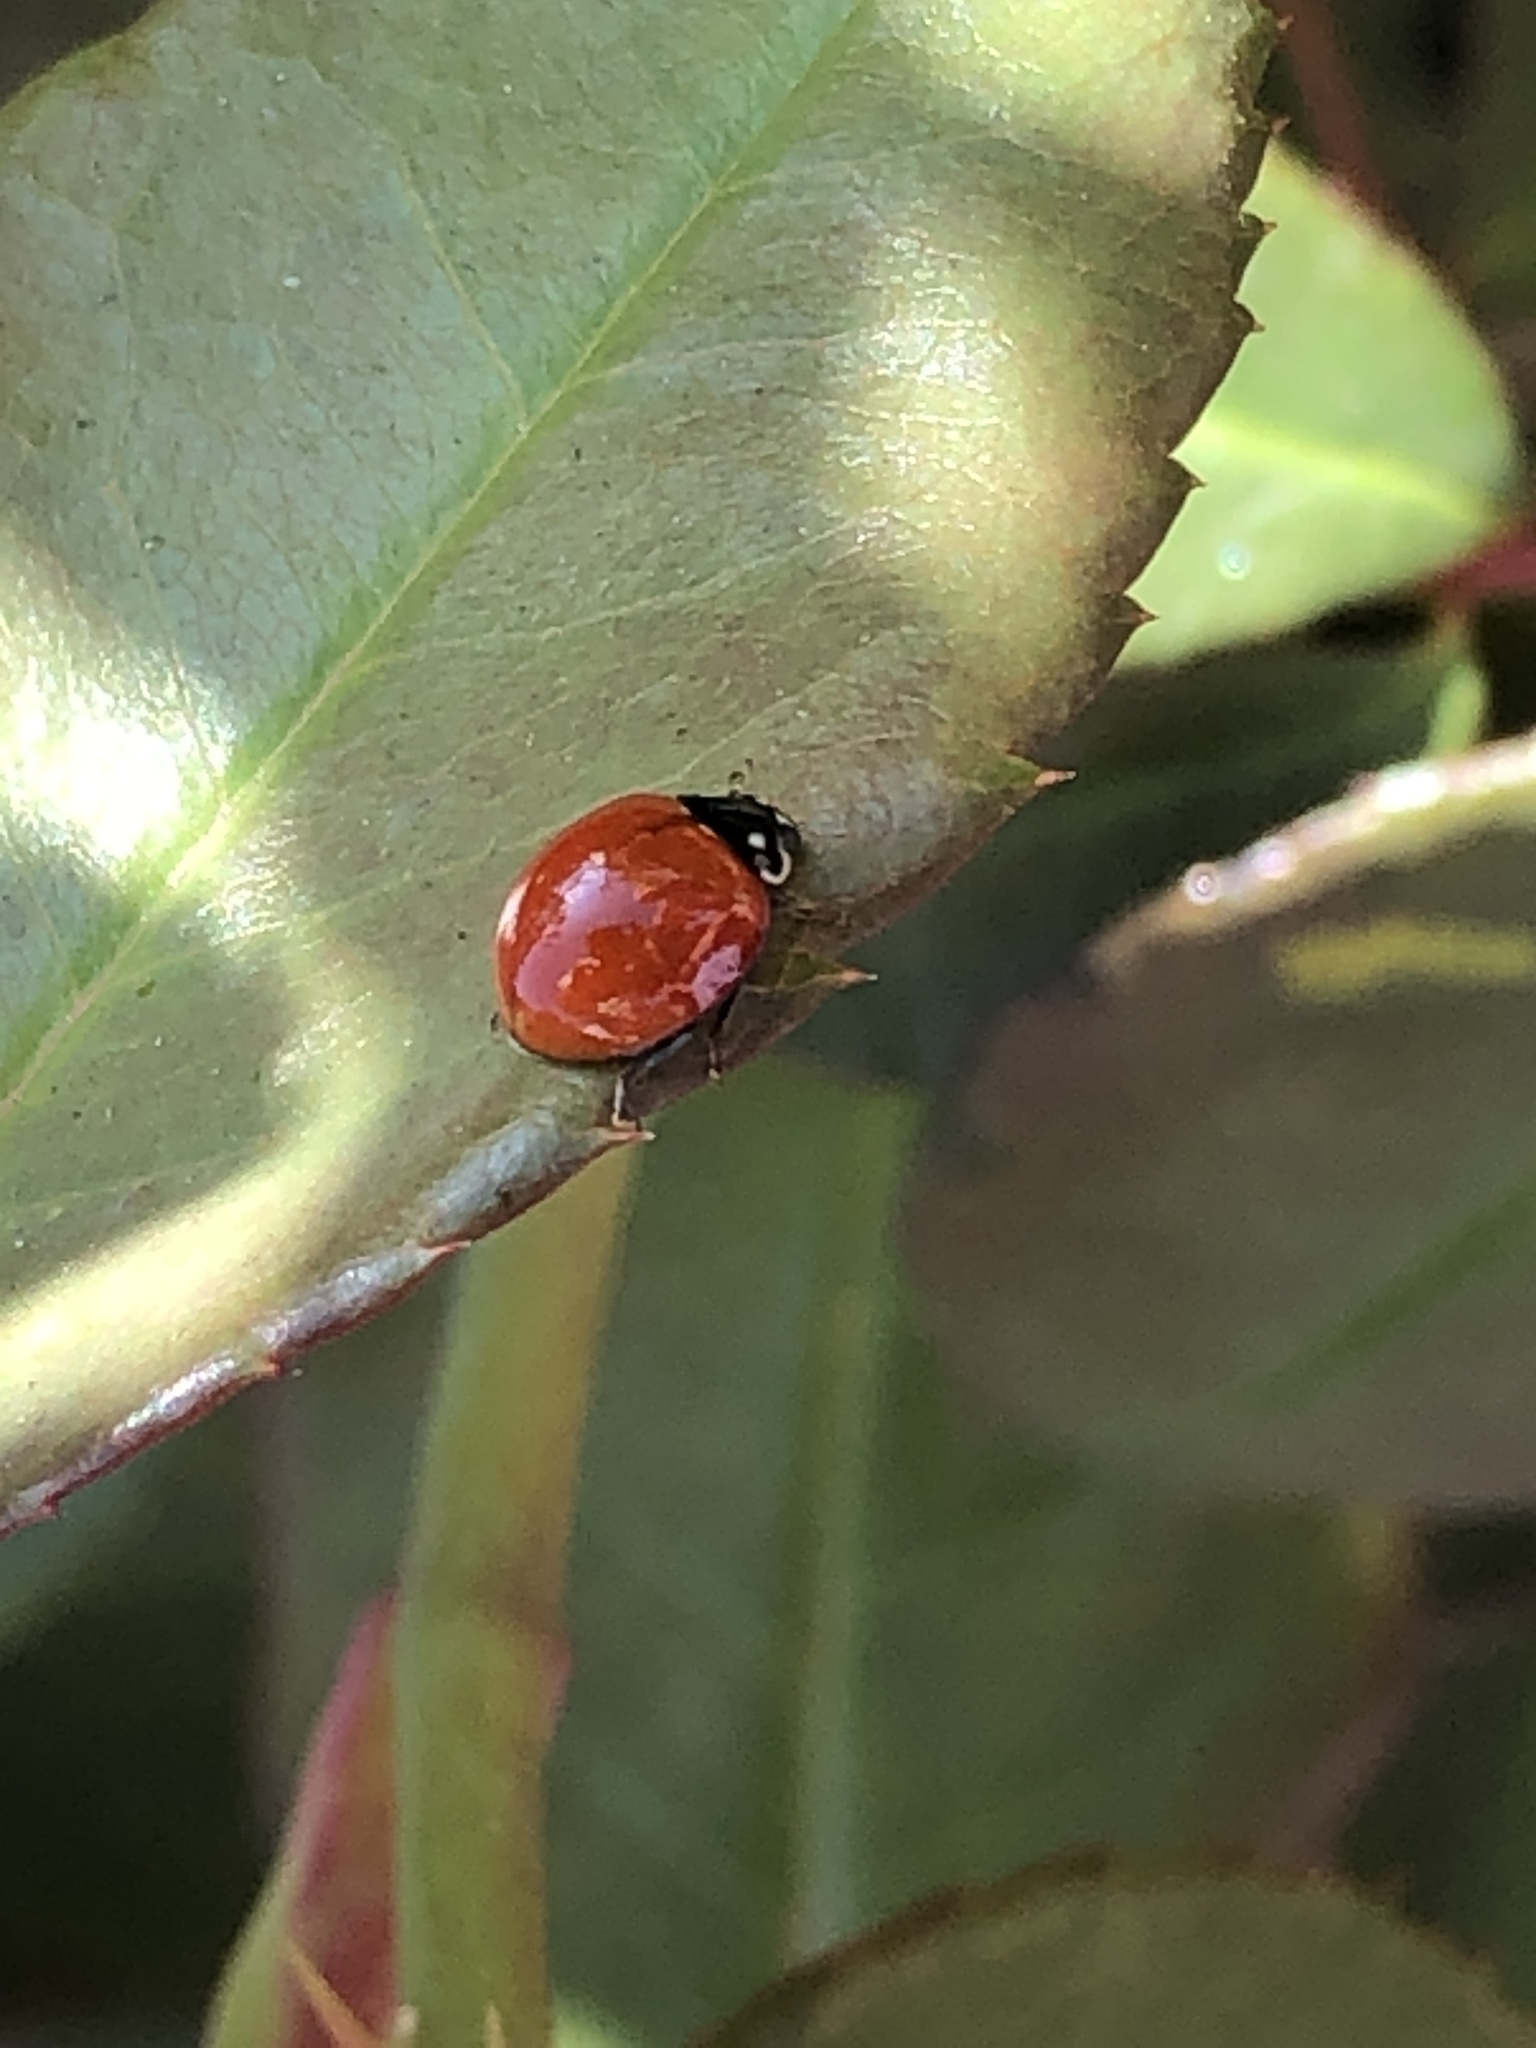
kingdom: Animalia
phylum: Arthropoda
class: Insecta
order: Coleoptera
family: Coccinellidae
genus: Cycloneda
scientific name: Cycloneda sanguinea
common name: Ladybird beetle
